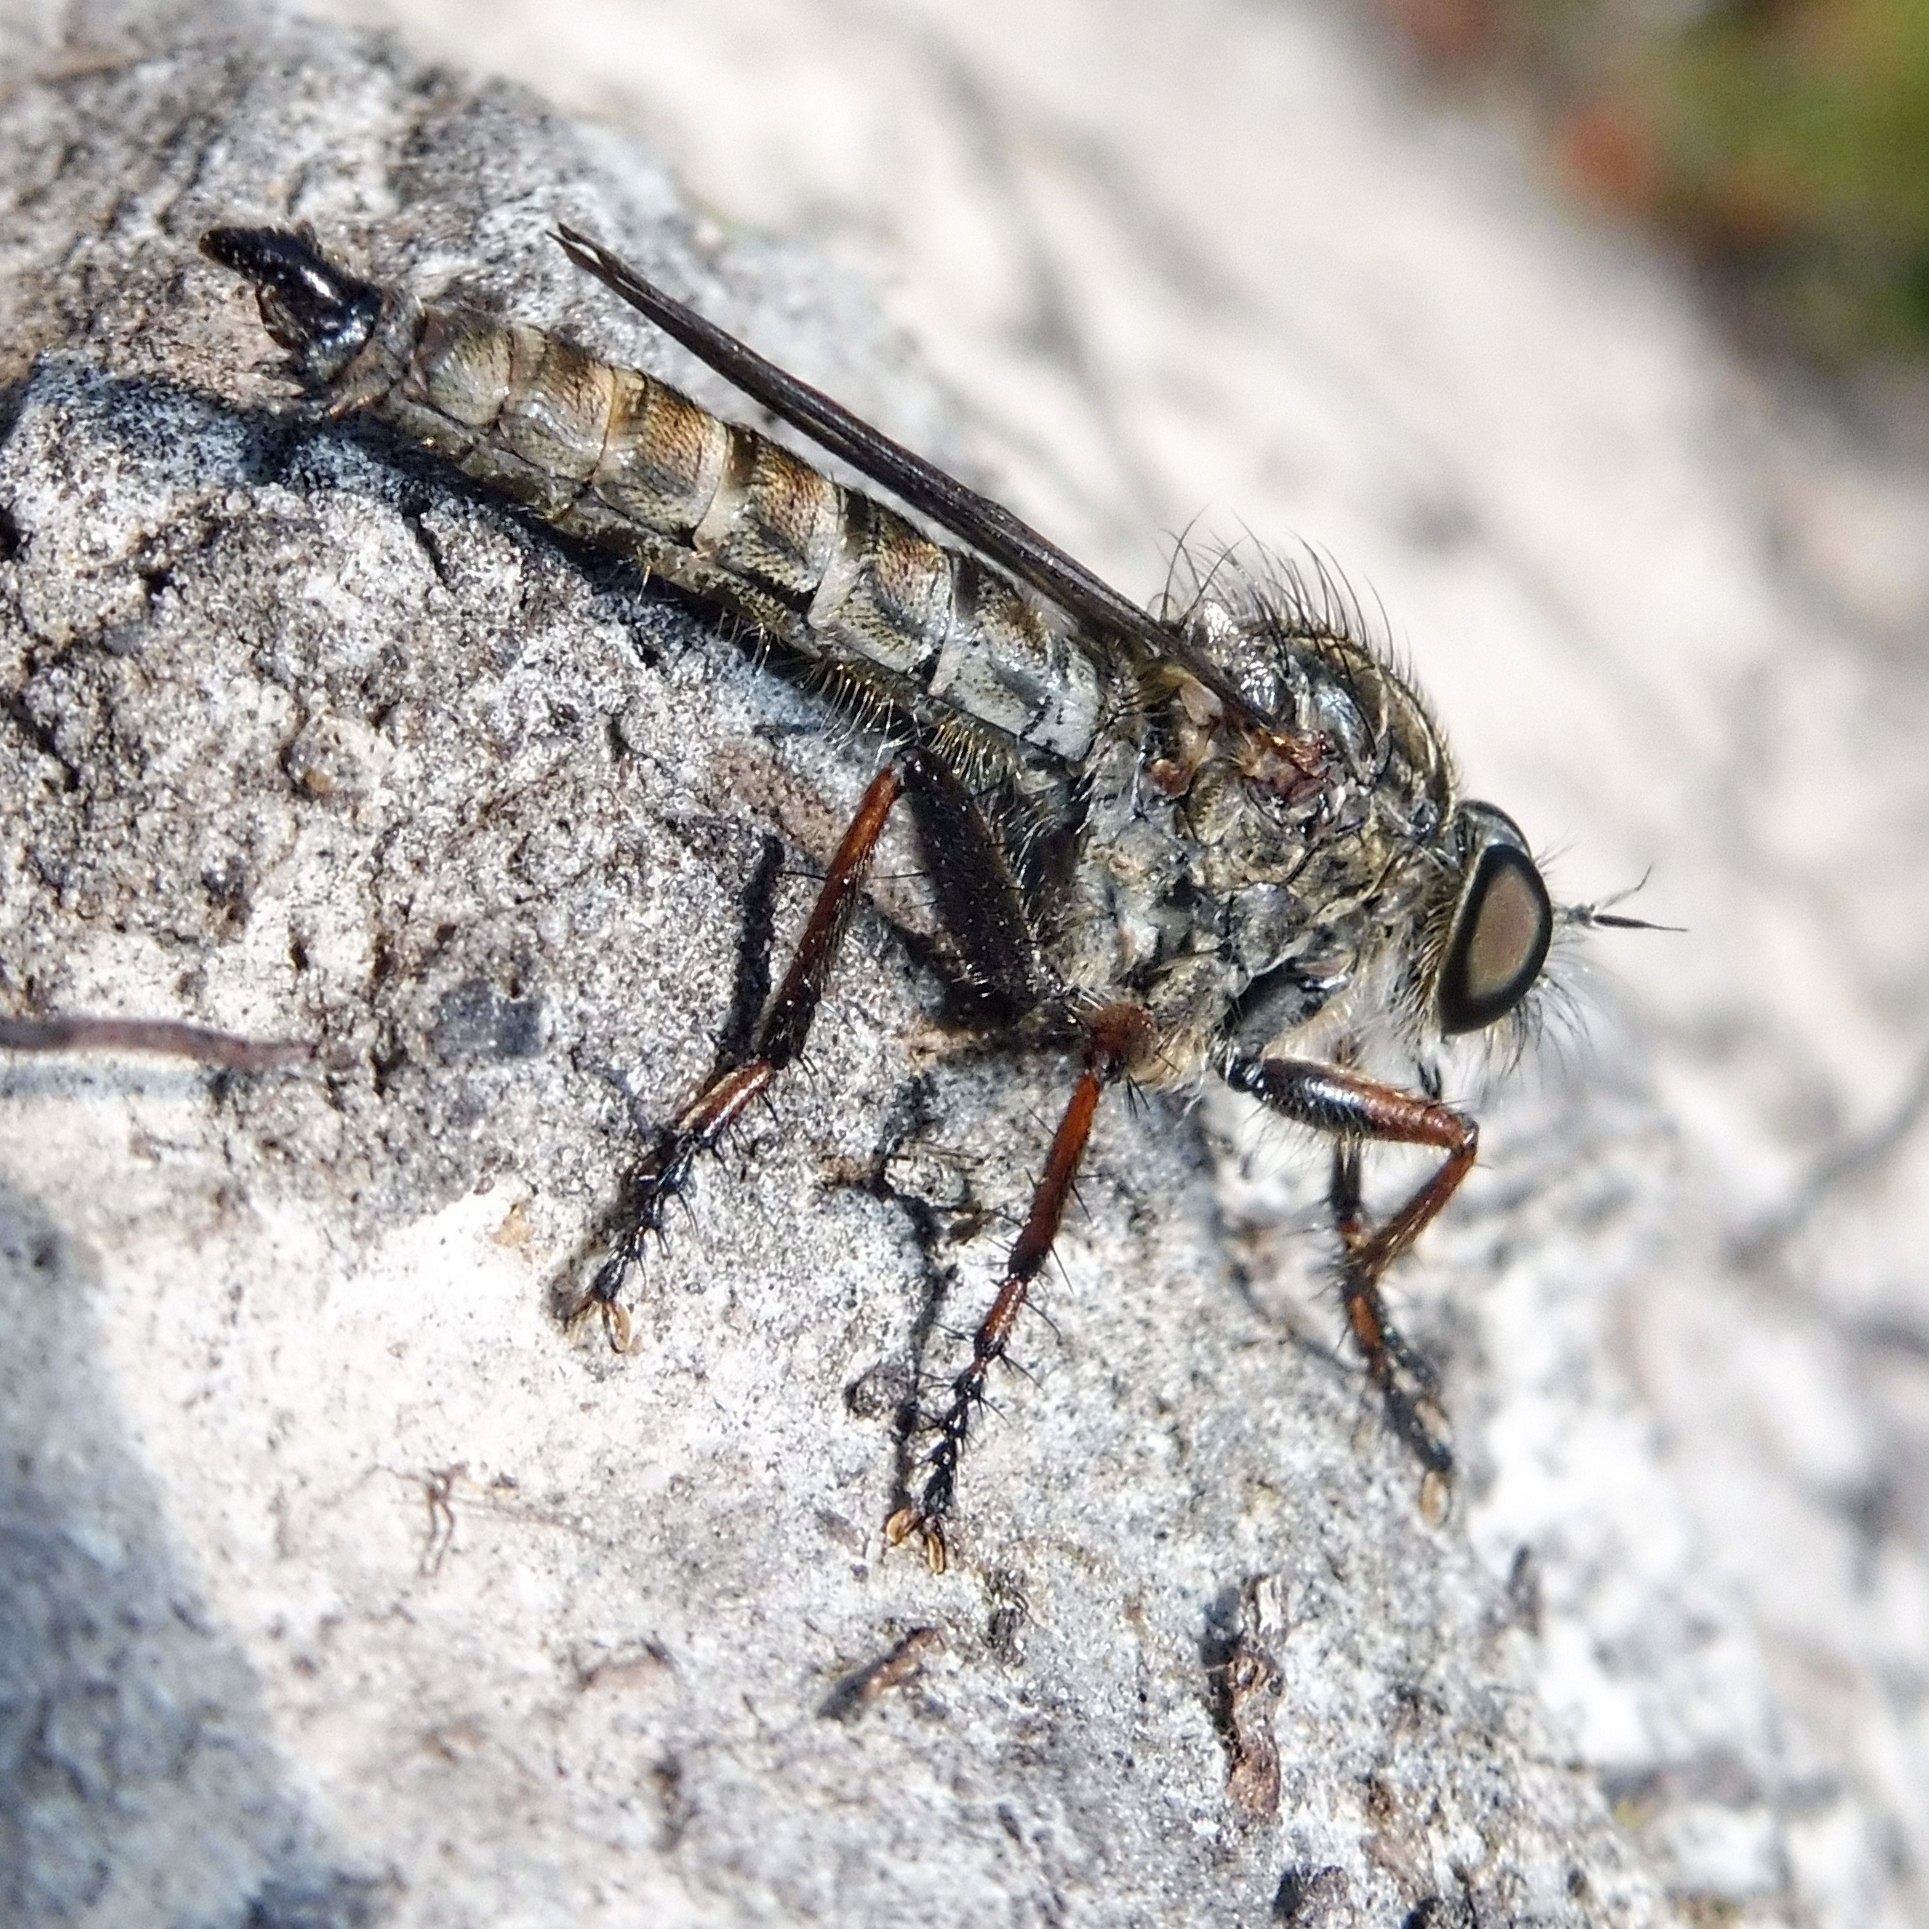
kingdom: Animalia
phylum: Arthropoda
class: Insecta
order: Diptera
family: Asilidae
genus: Machimus
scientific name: Machimus atricapillus
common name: Kite-tailed robberfly
